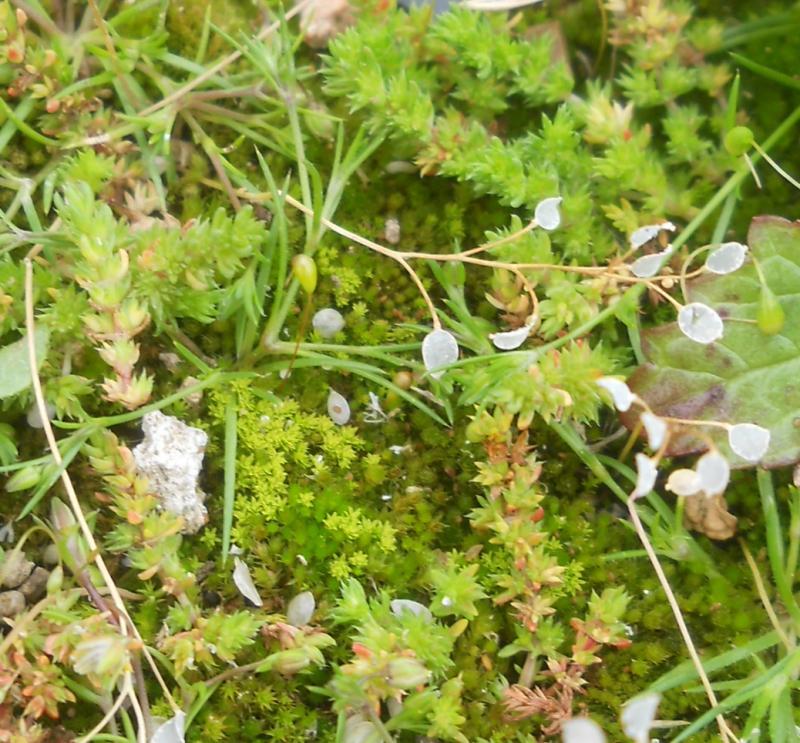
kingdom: Plantae
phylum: Tracheophyta
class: Magnoliopsida
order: Brassicales
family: Brassicaceae
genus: Draba
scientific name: Draba verna
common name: Spring draba
